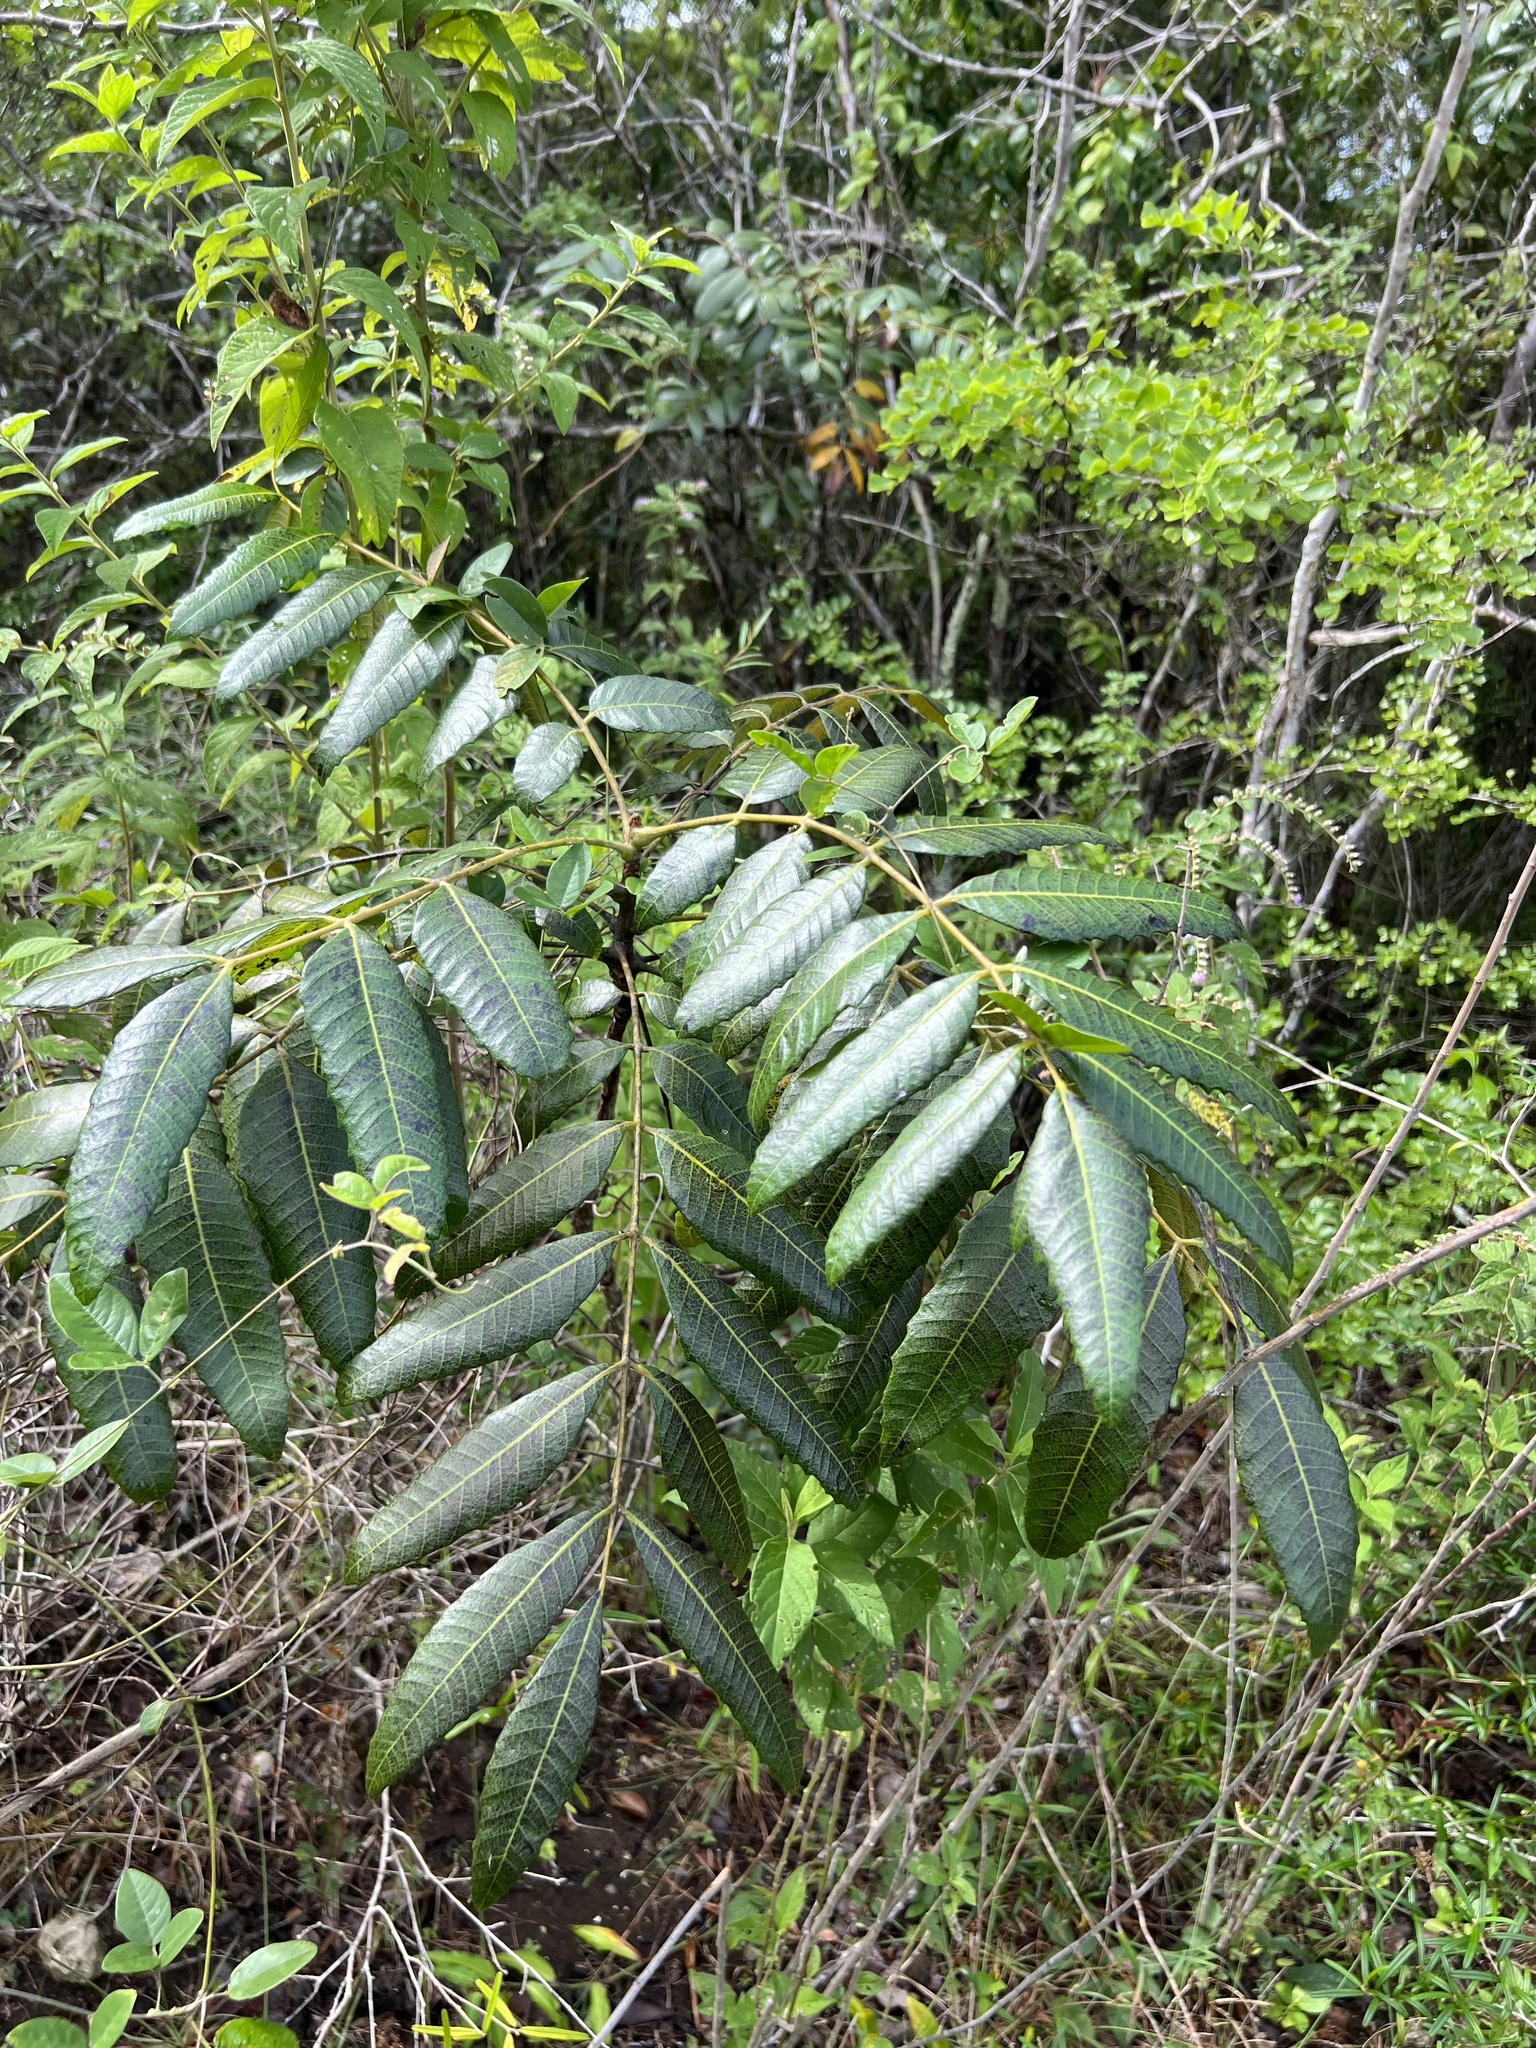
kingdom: Plantae
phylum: Tracheophyta
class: Magnoliopsida
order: Sapindales
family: Anacardiaceae
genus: Comocladia
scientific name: Comocladia dentata
